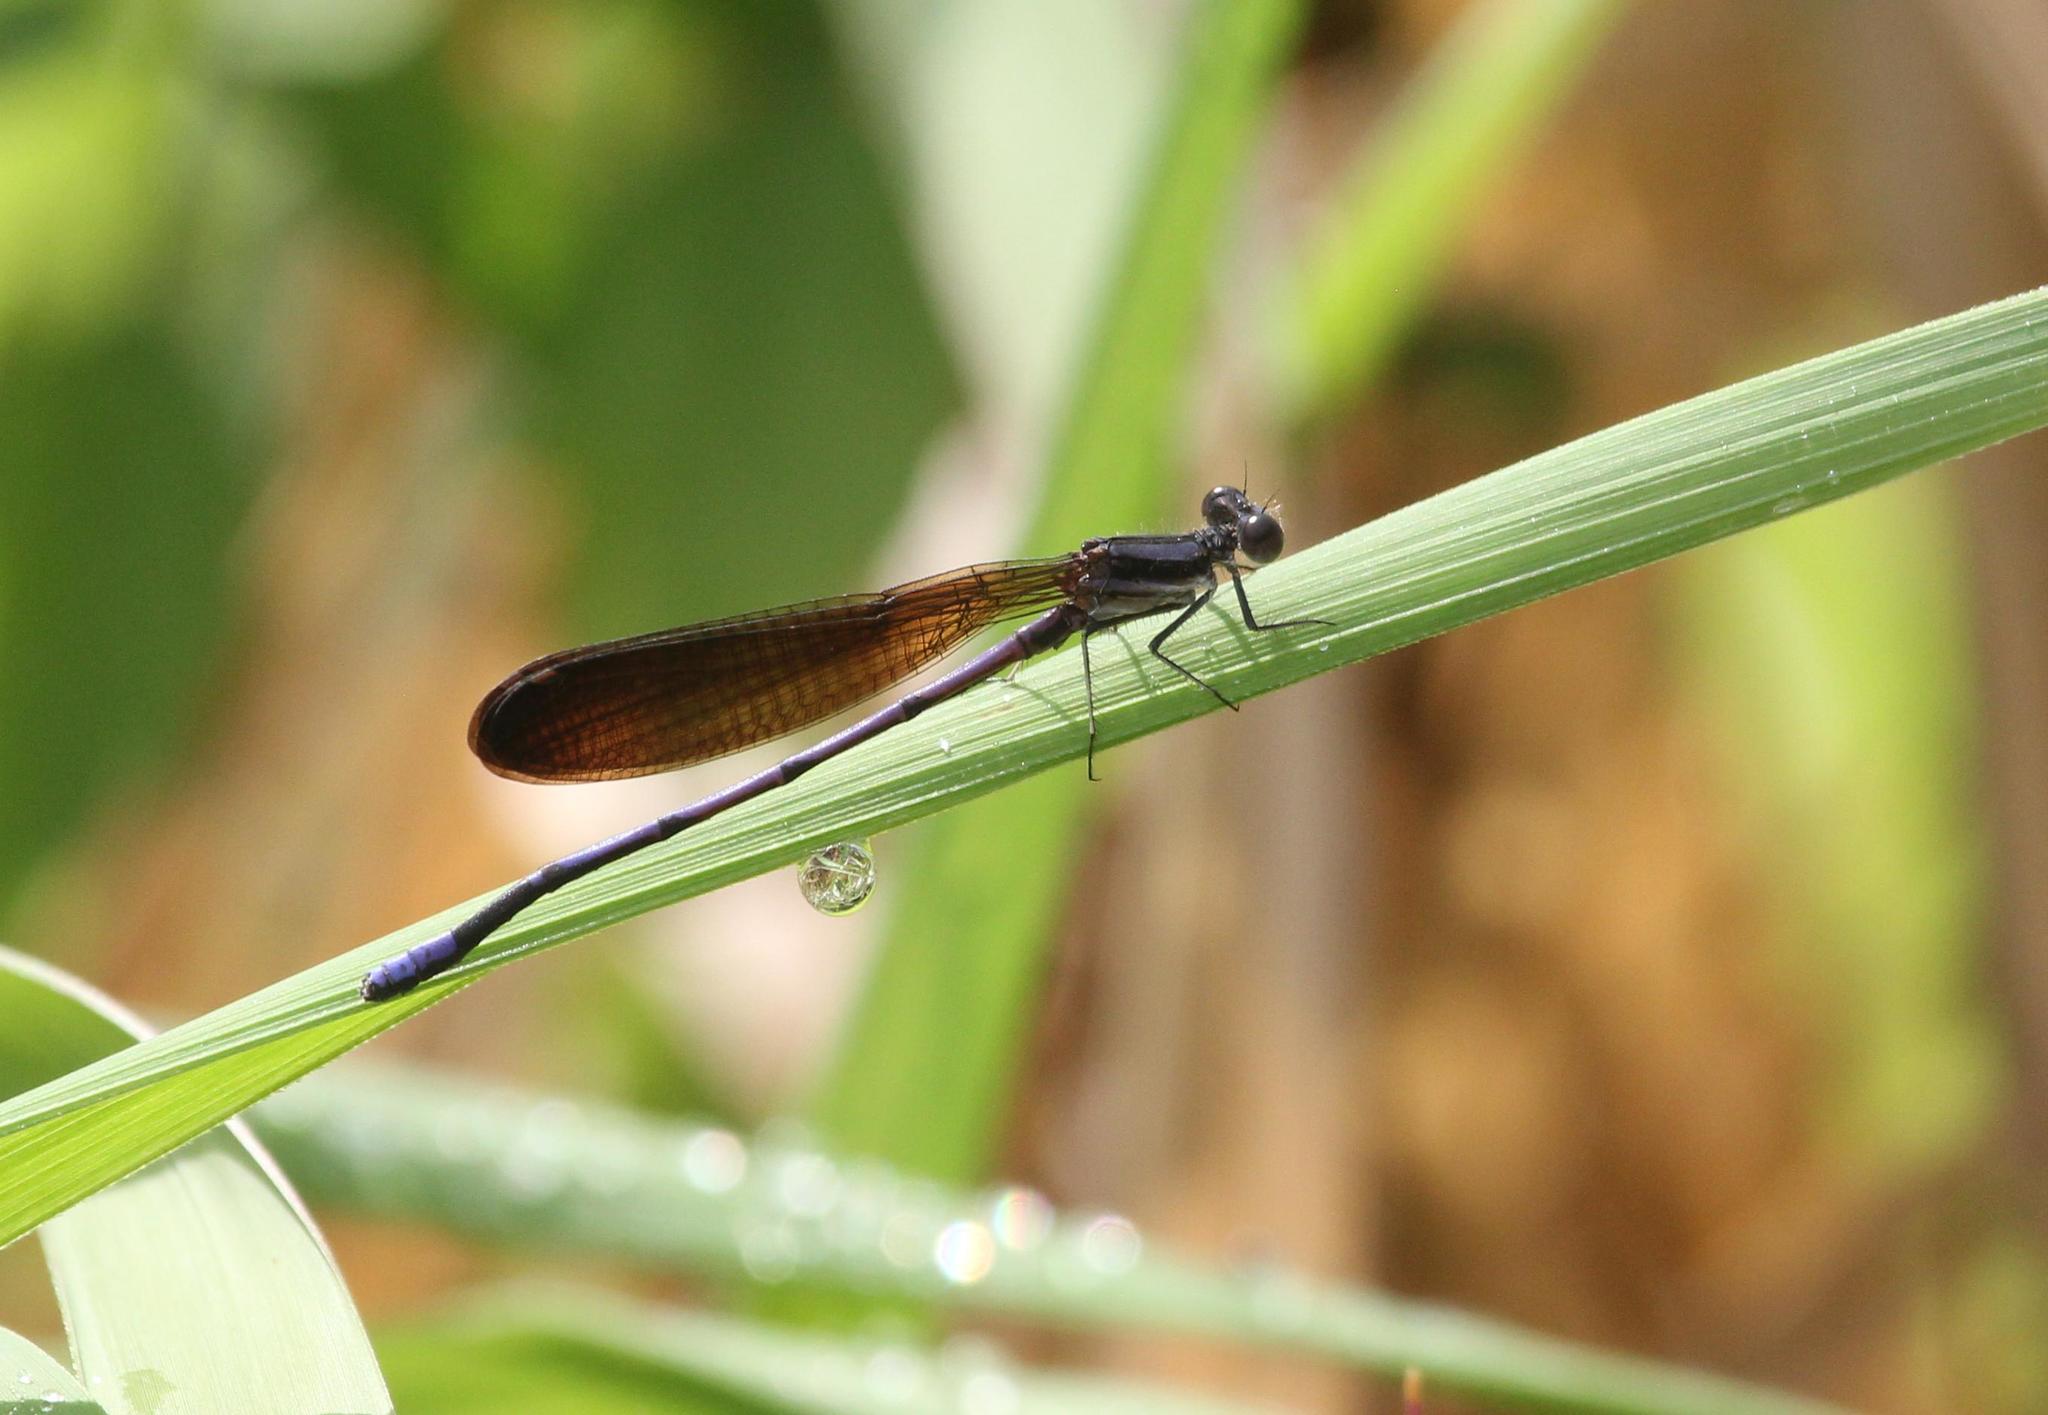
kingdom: Animalia
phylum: Arthropoda
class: Insecta
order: Odonata
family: Coenagrionidae
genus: Argia
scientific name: Argia fumipennis
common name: Variable dancer
